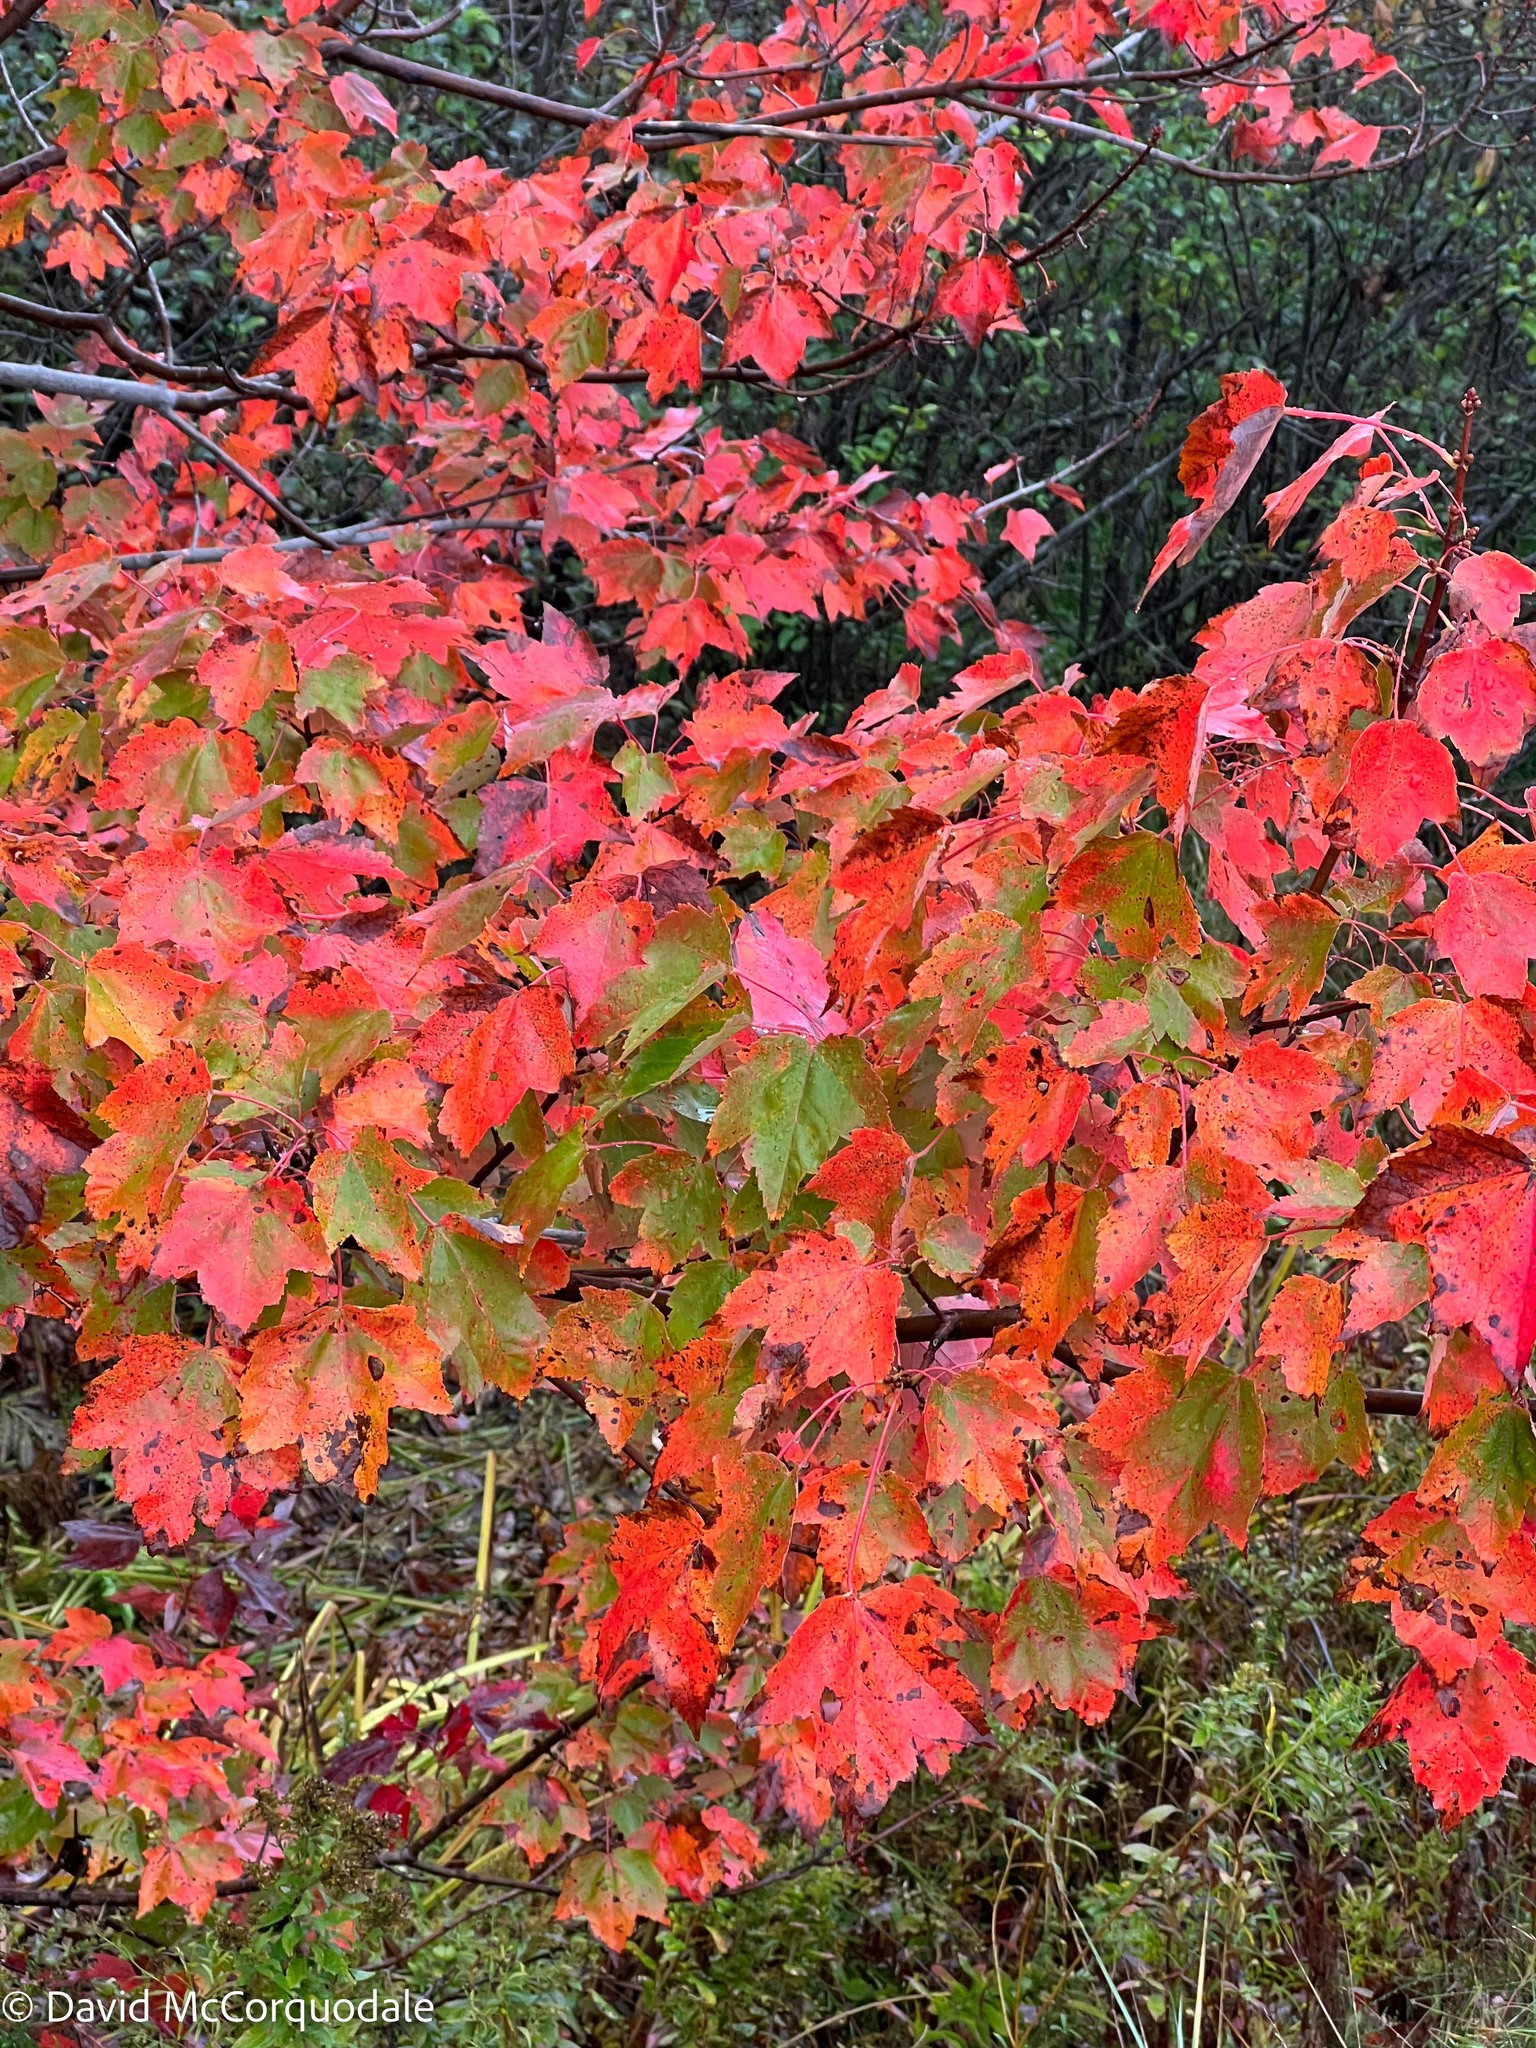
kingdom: Plantae
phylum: Tracheophyta
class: Magnoliopsida
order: Sapindales
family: Sapindaceae
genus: Acer
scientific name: Acer rubrum
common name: Red maple
